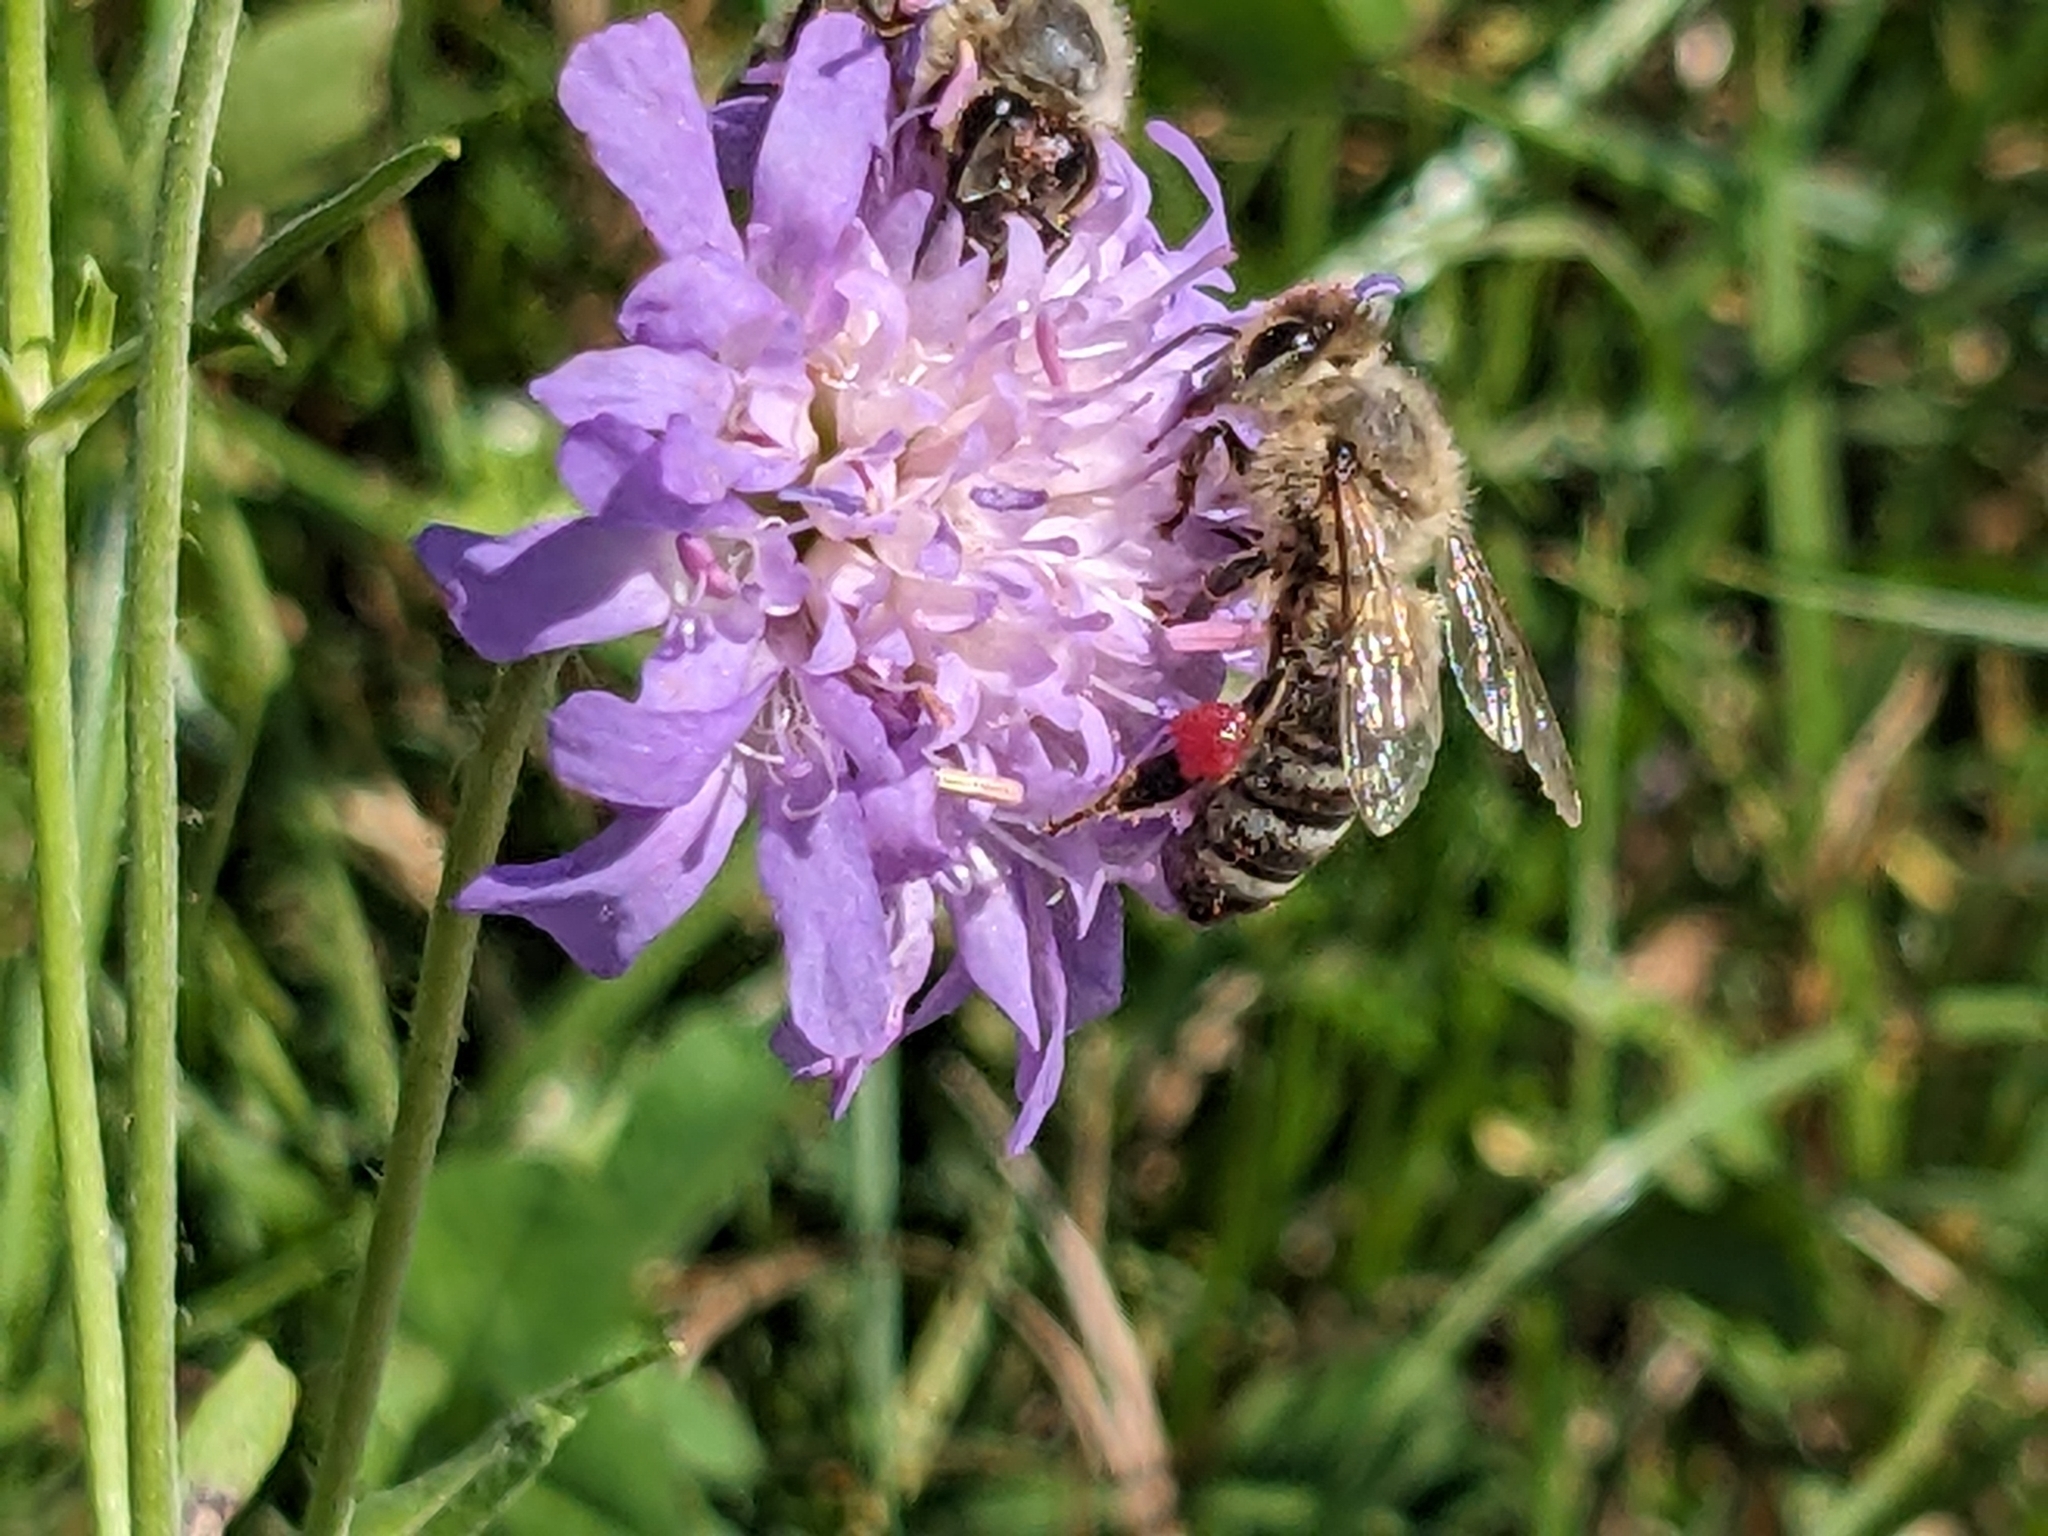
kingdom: Animalia
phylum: Arthropoda
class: Insecta
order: Hymenoptera
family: Apidae
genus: Apis
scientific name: Apis mellifera
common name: Honey bee
